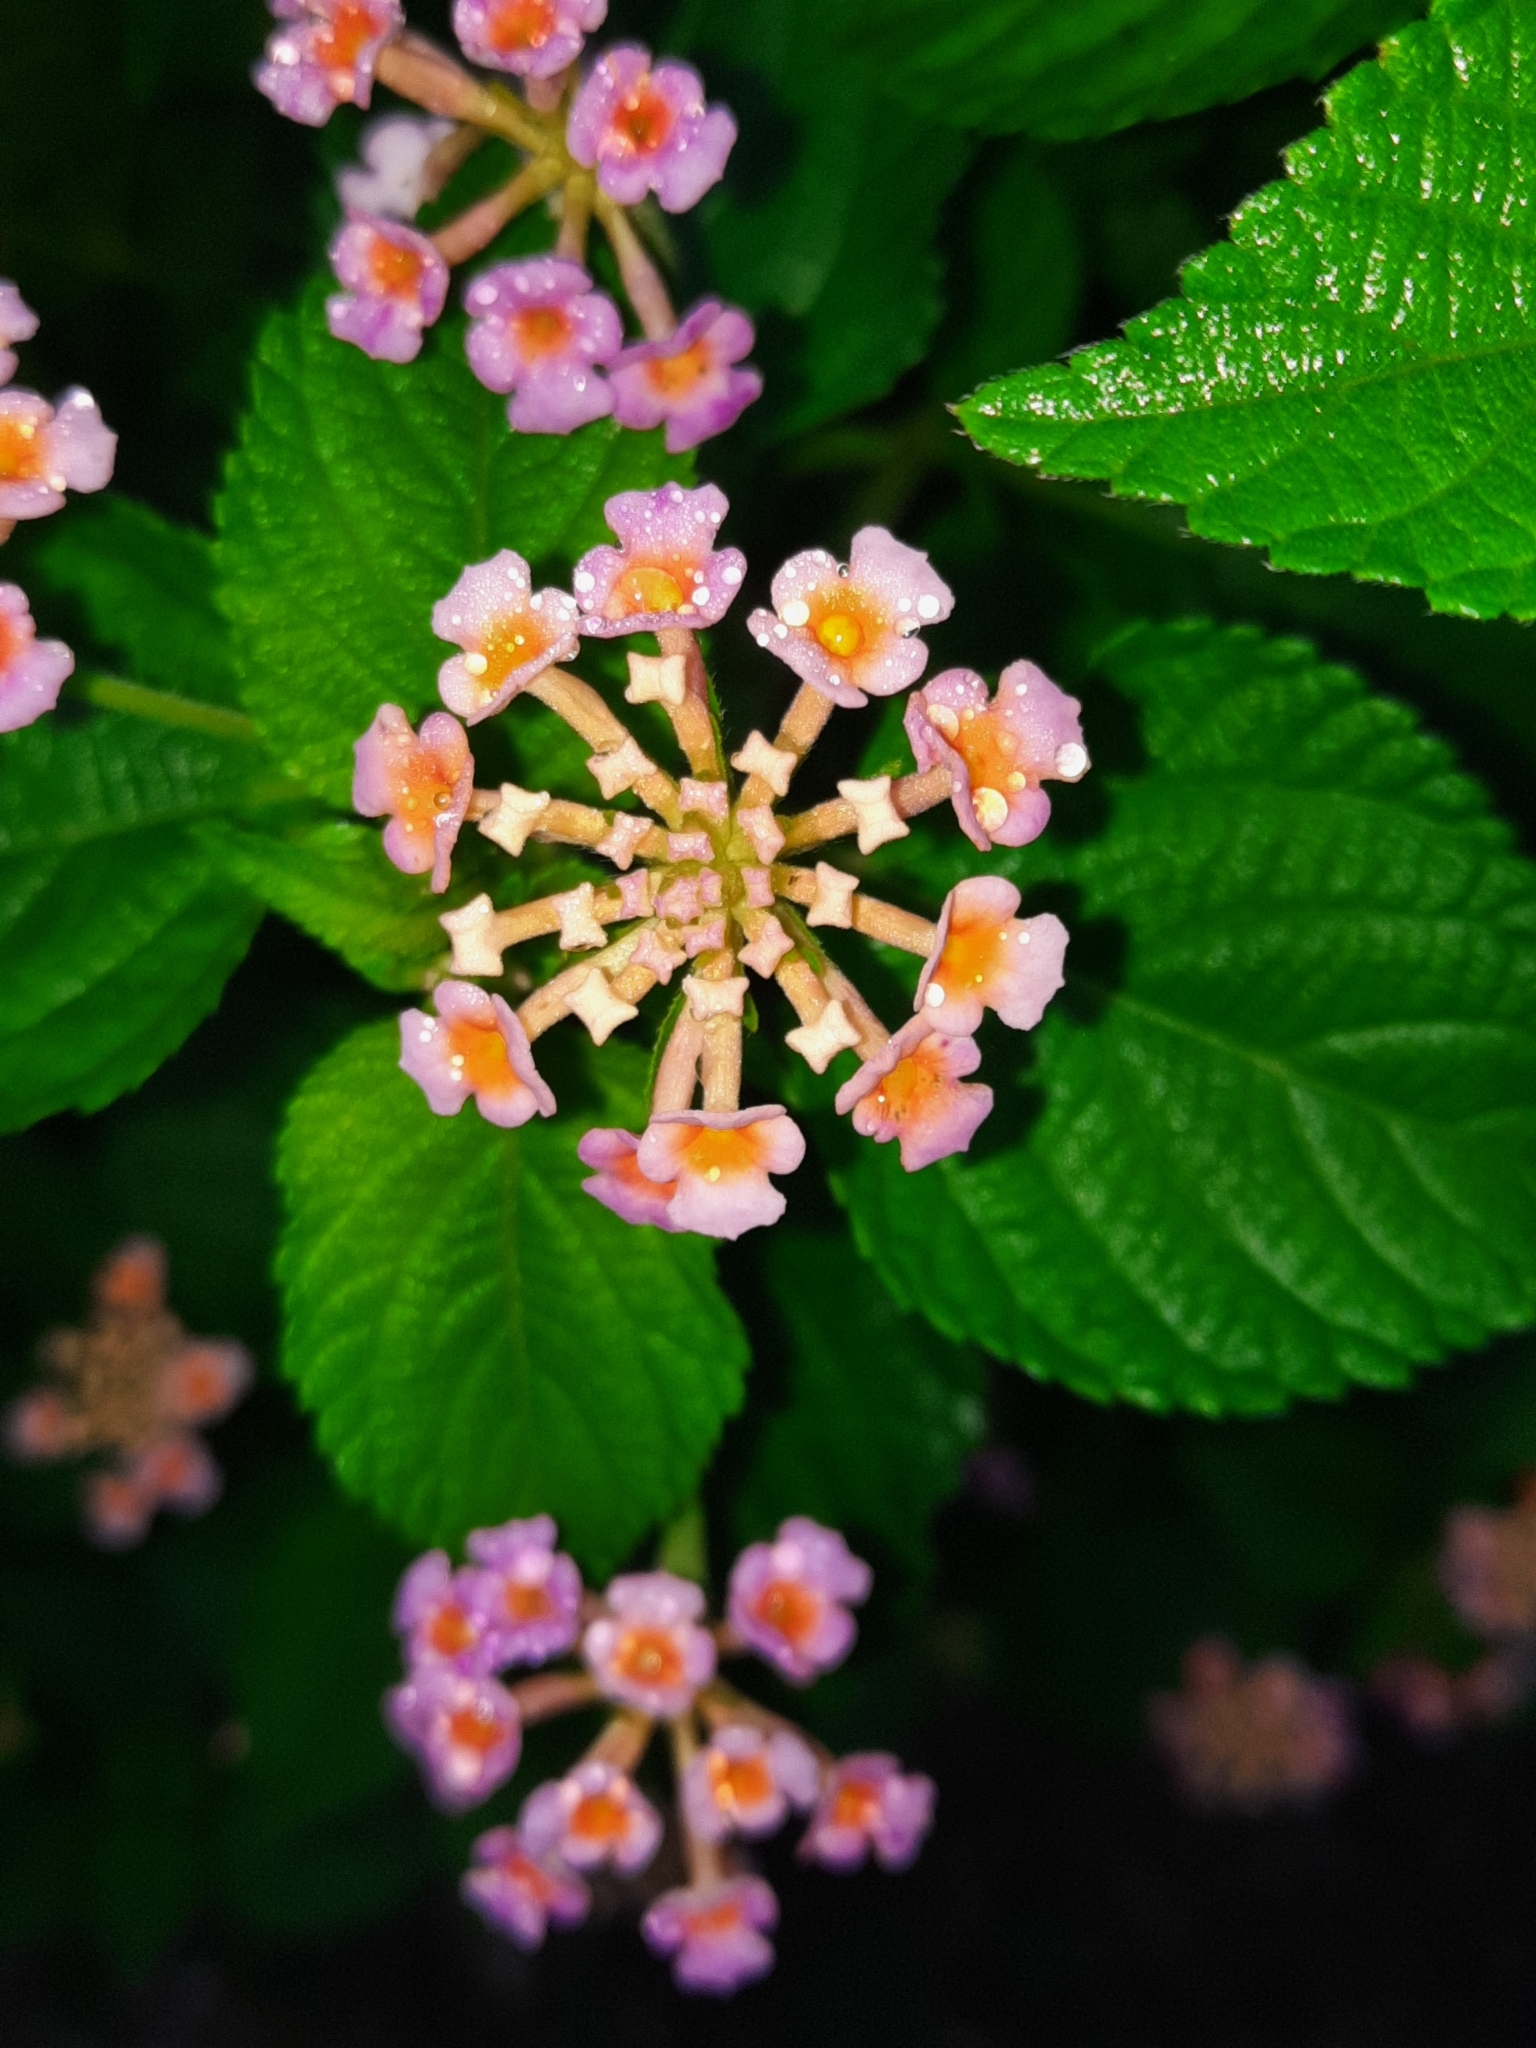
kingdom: Plantae
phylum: Tracheophyta
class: Magnoliopsida
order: Lamiales
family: Verbenaceae
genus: Lantana
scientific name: Lantana camara
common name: Lantana
